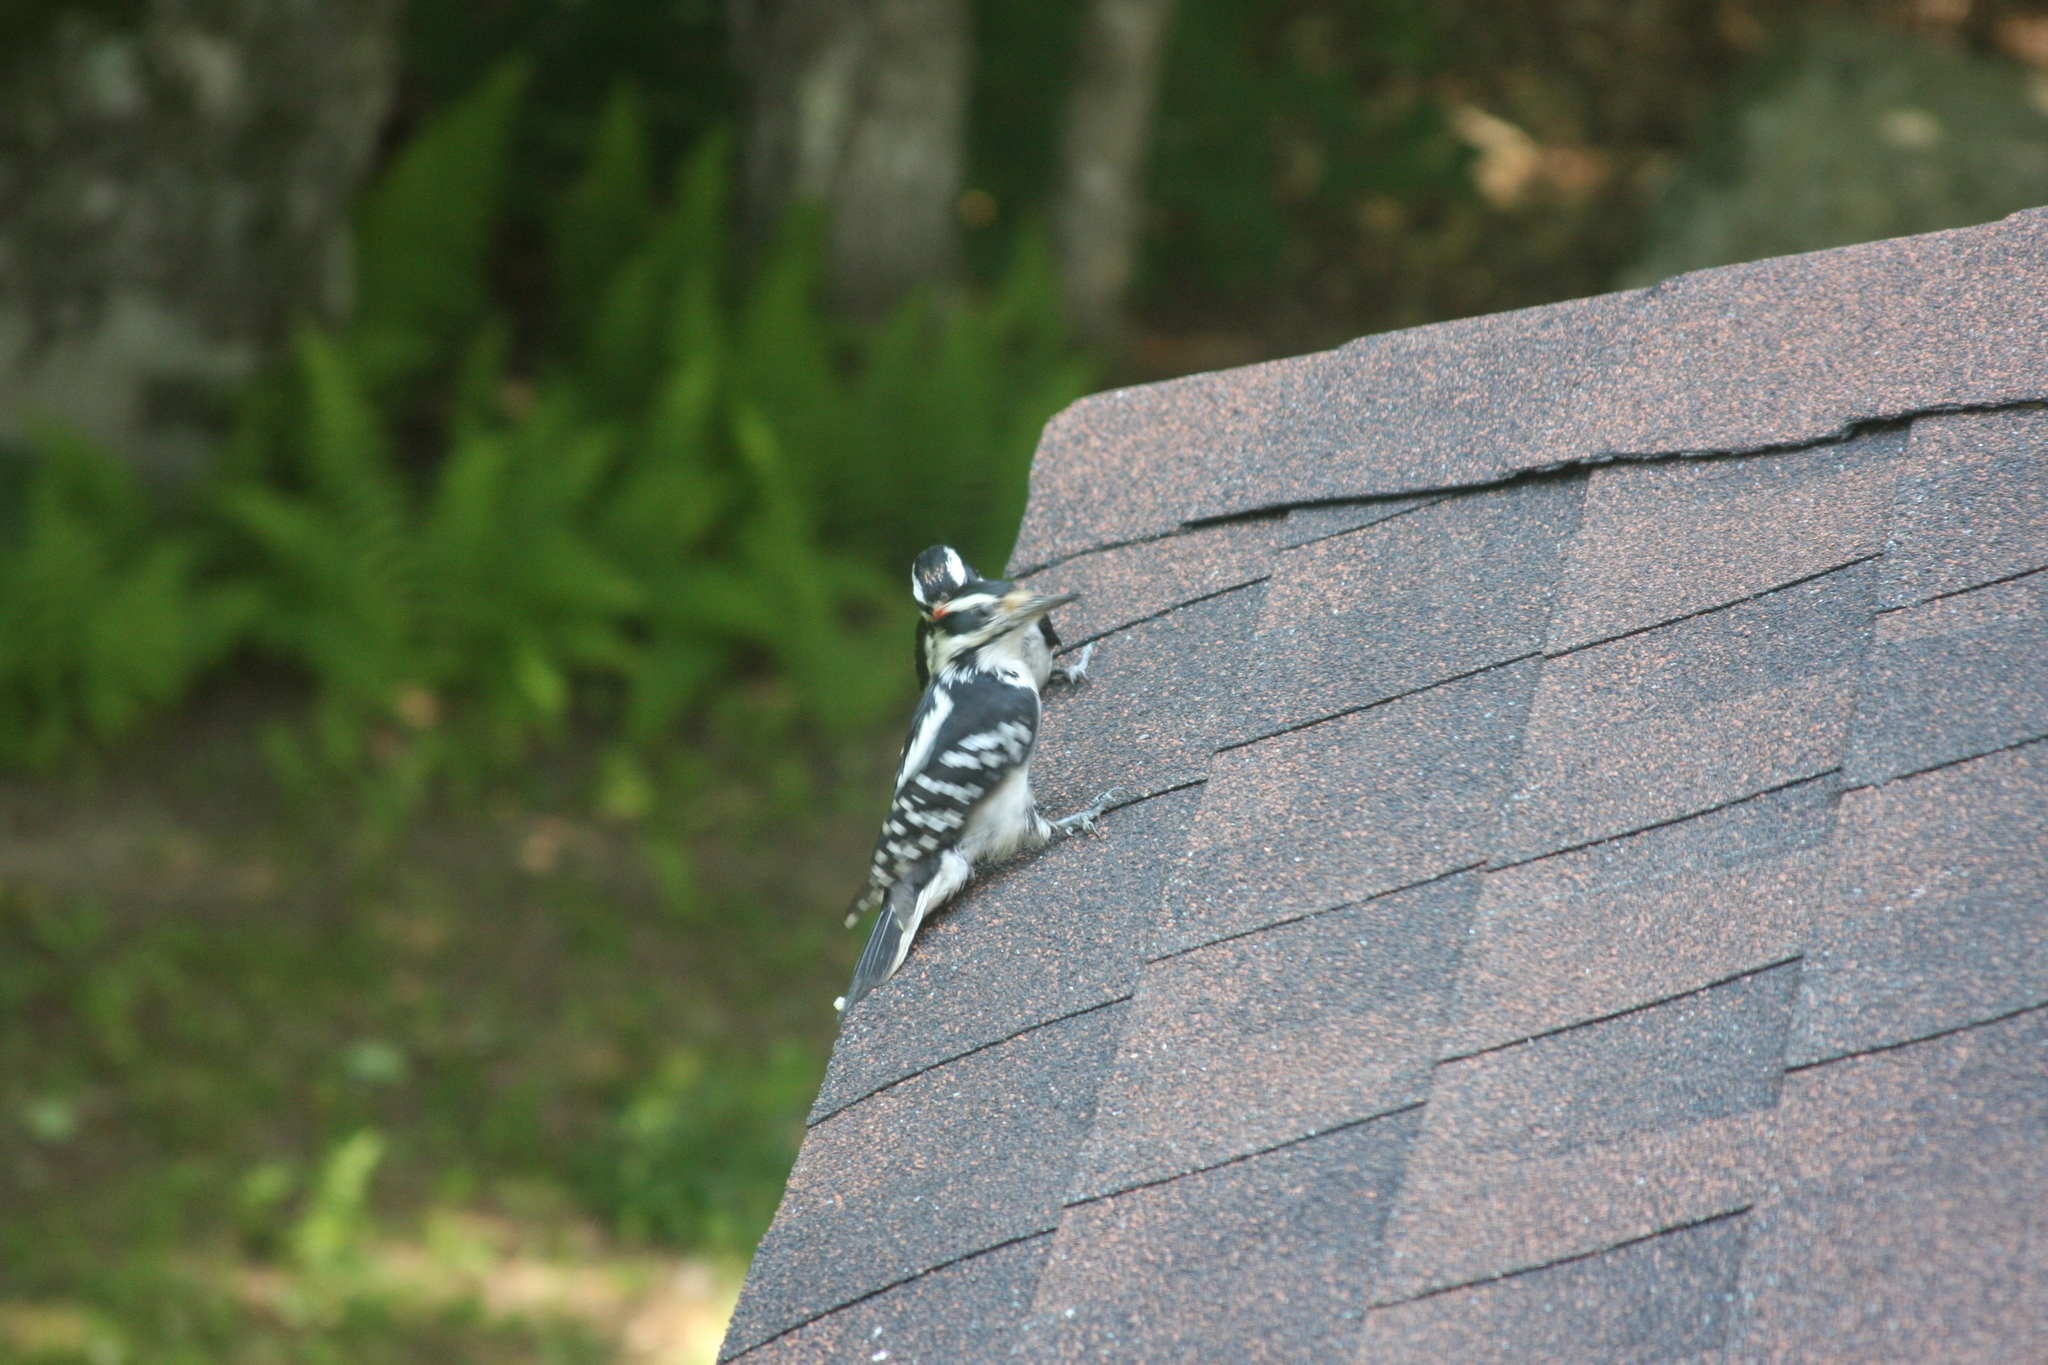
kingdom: Animalia
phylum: Chordata
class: Aves
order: Piciformes
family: Picidae
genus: Leuconotopicus
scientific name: Leuconotopicus villosus
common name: Hairy woodpecker
